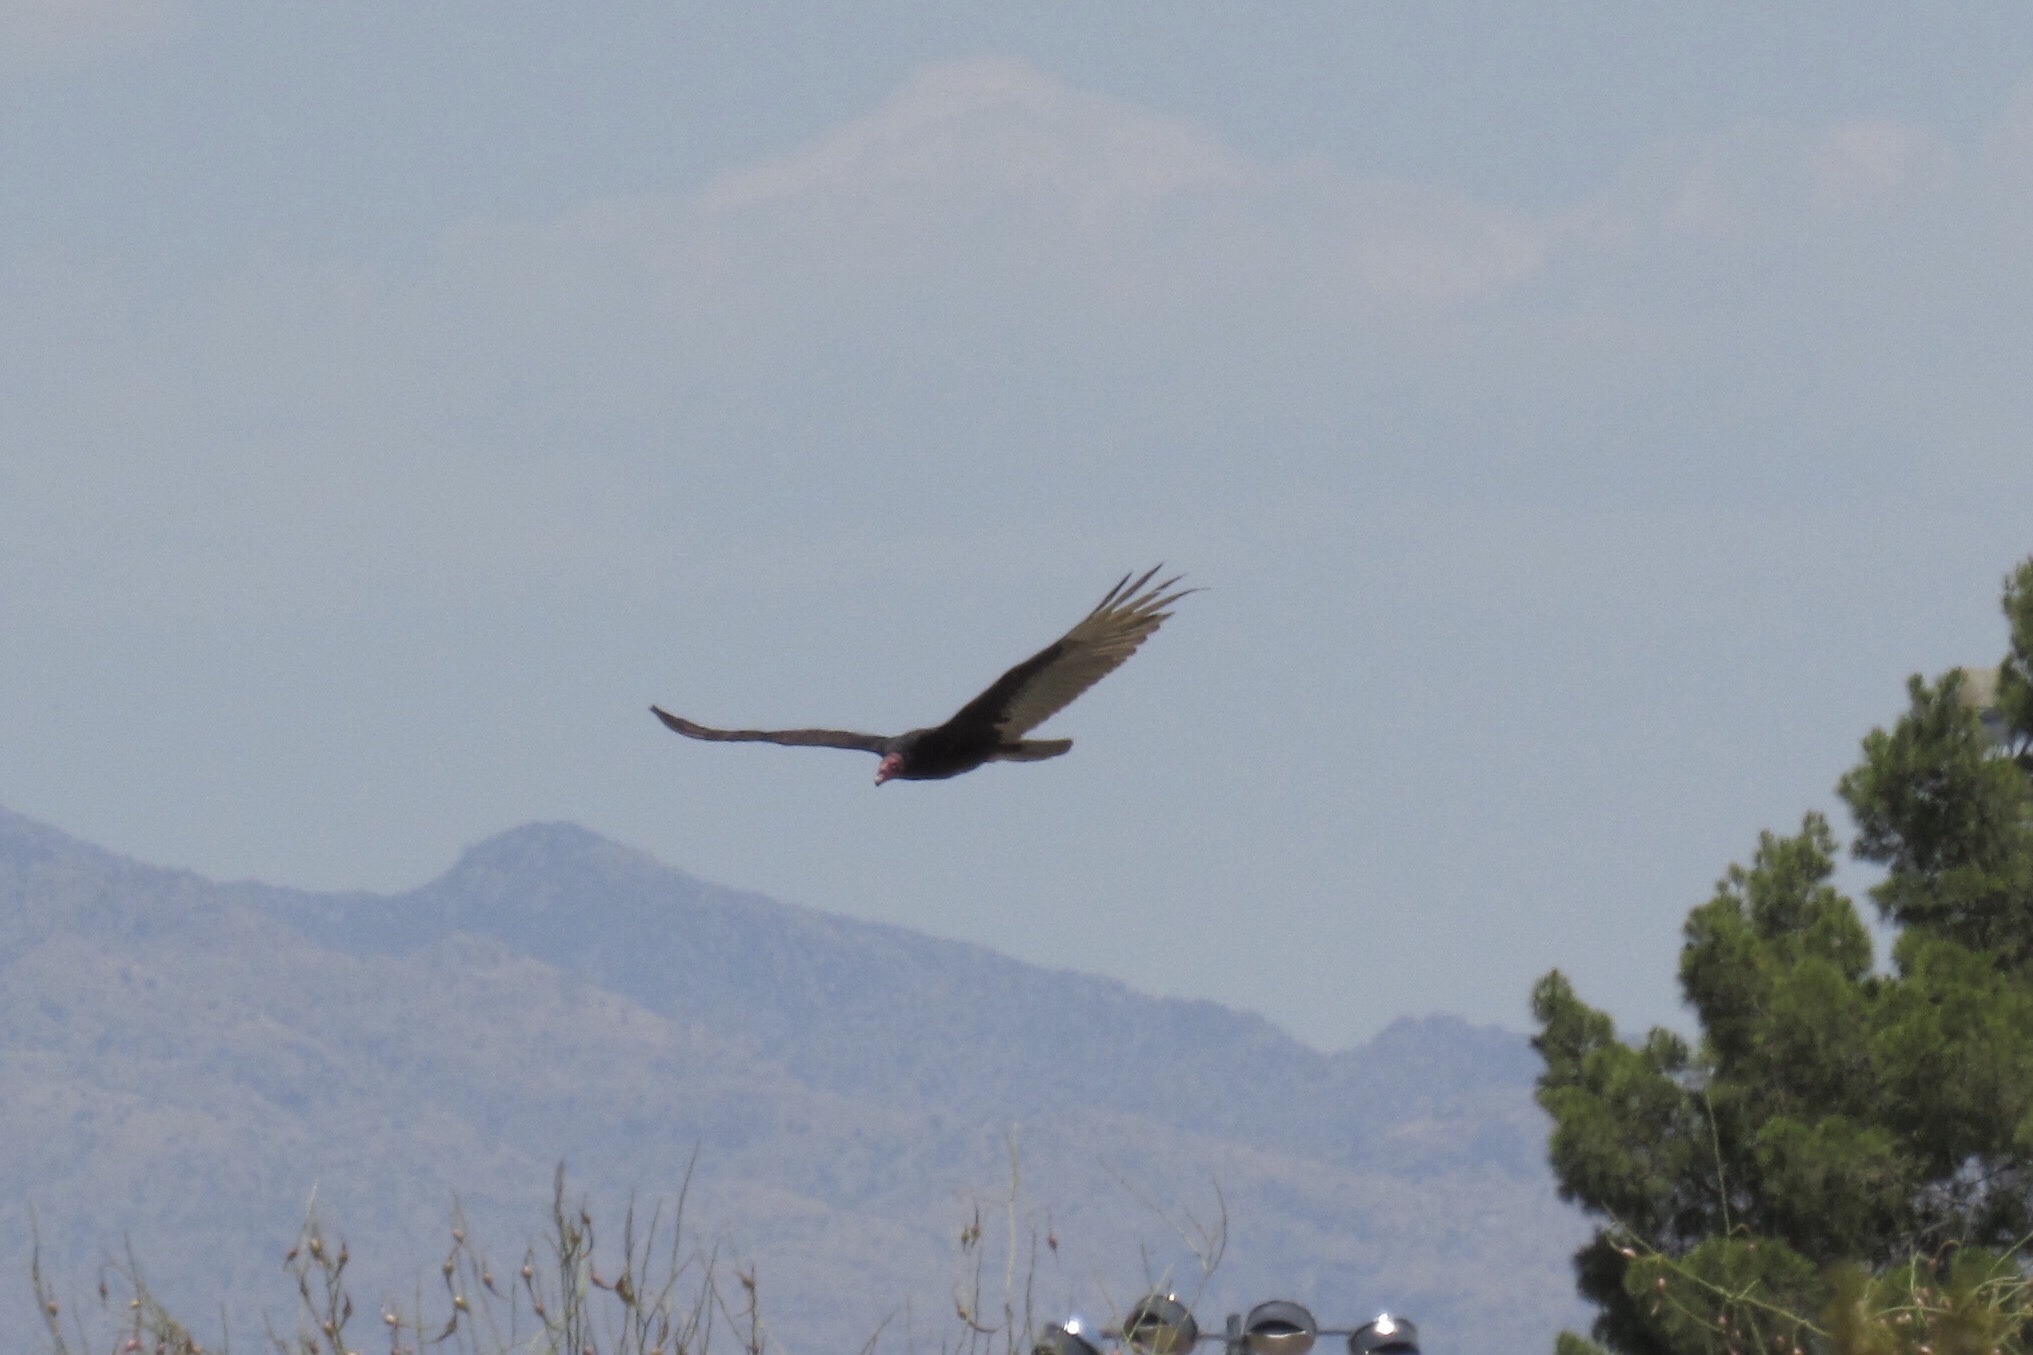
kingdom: Animalia
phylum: Chordata
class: Aves
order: Accipitriformes
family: Cathartidae
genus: Cathartes
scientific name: Cathartes aura
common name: Turkey vulture
